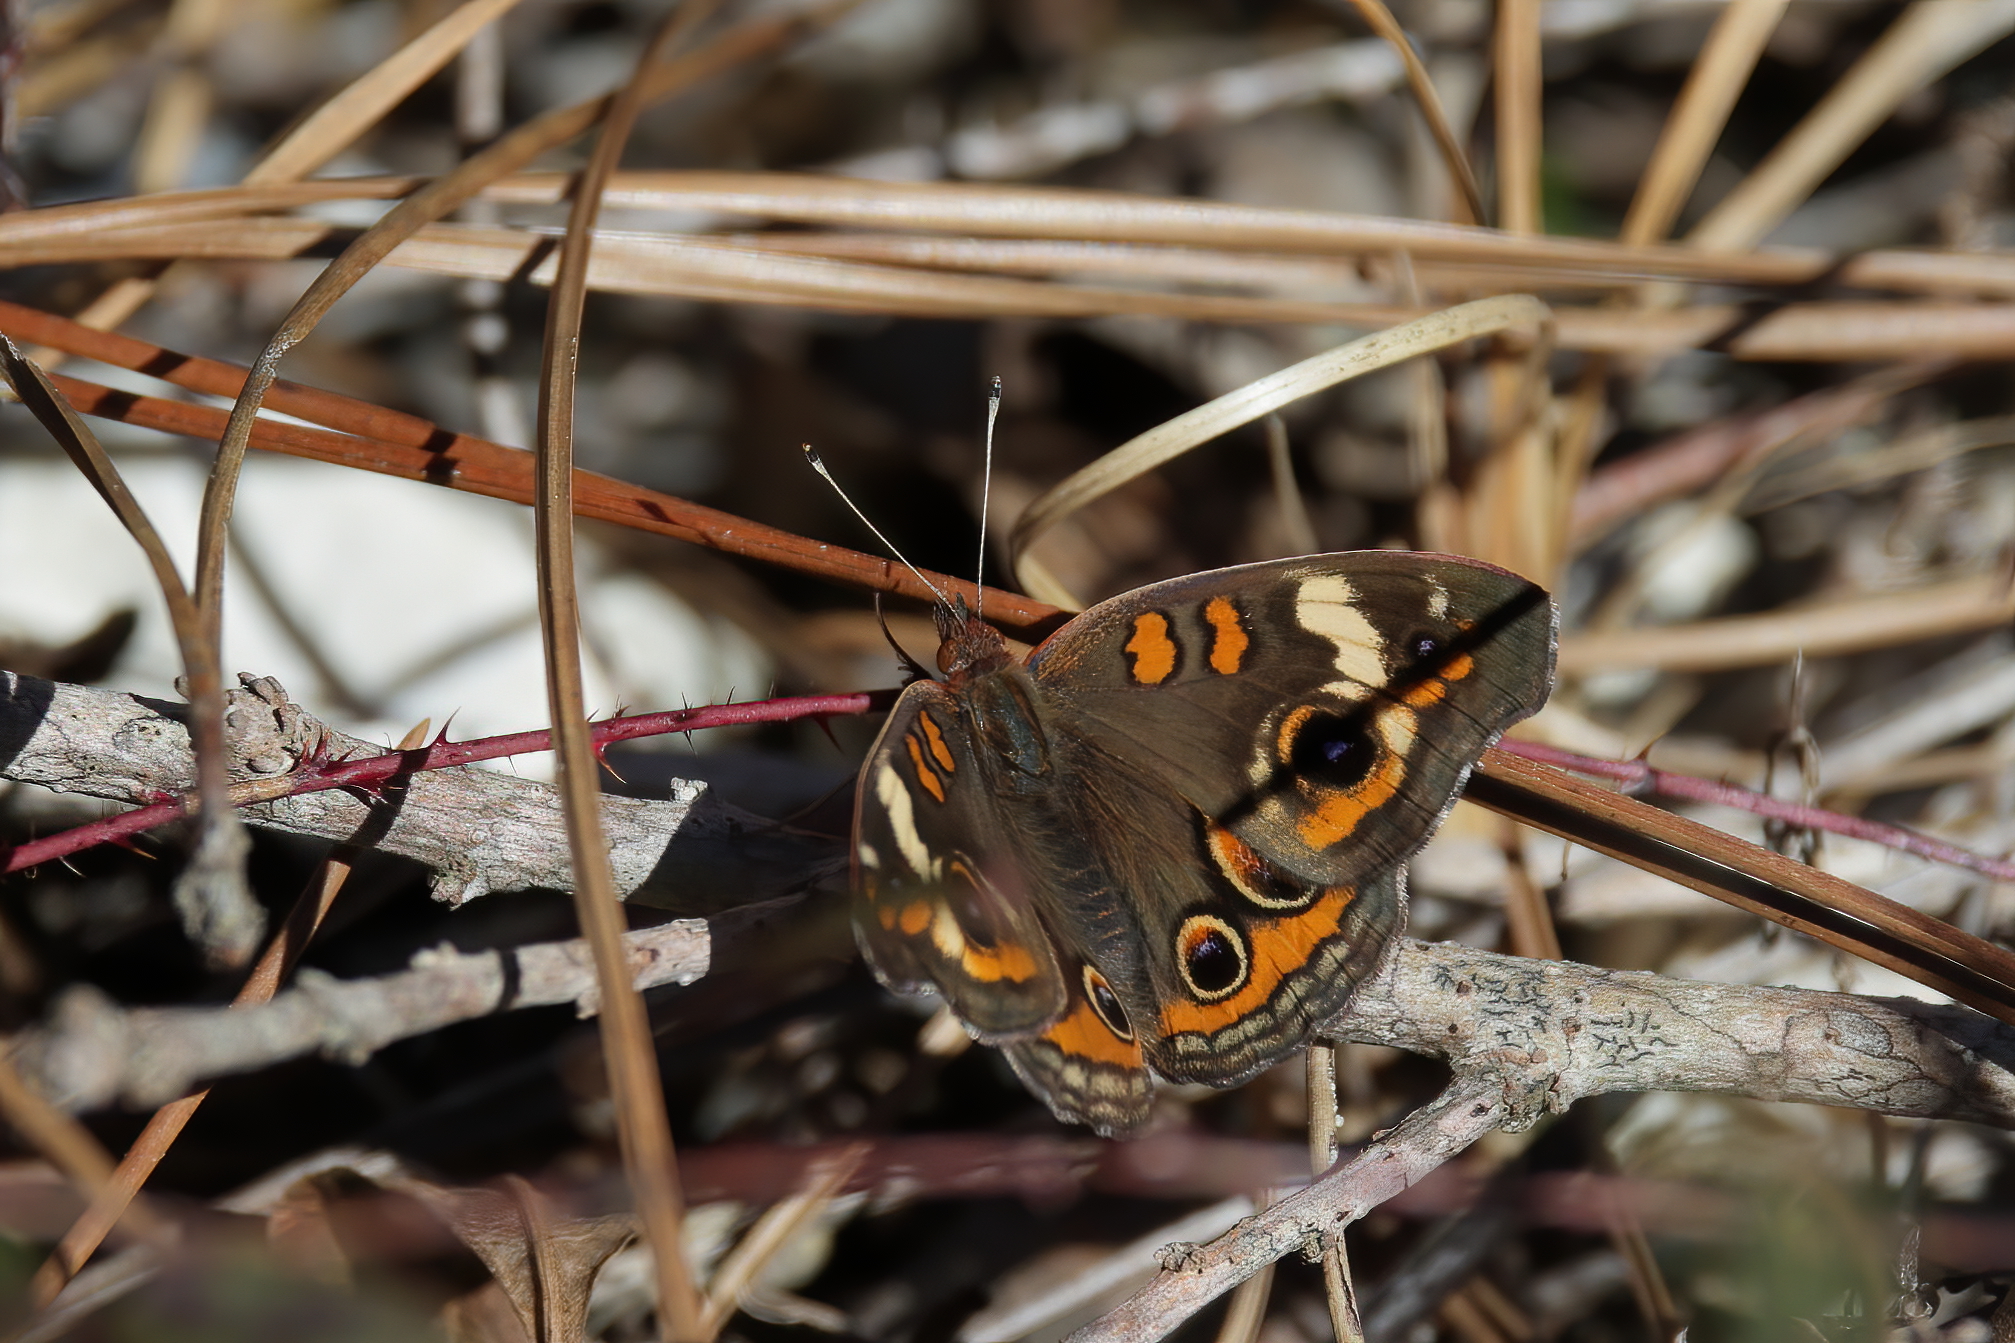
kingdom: Animalia
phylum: Arthropoda
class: Insecta
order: Lepidoptera
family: Nymphalidae
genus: Junonia
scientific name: Junonia coenia
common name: Common buckeye
